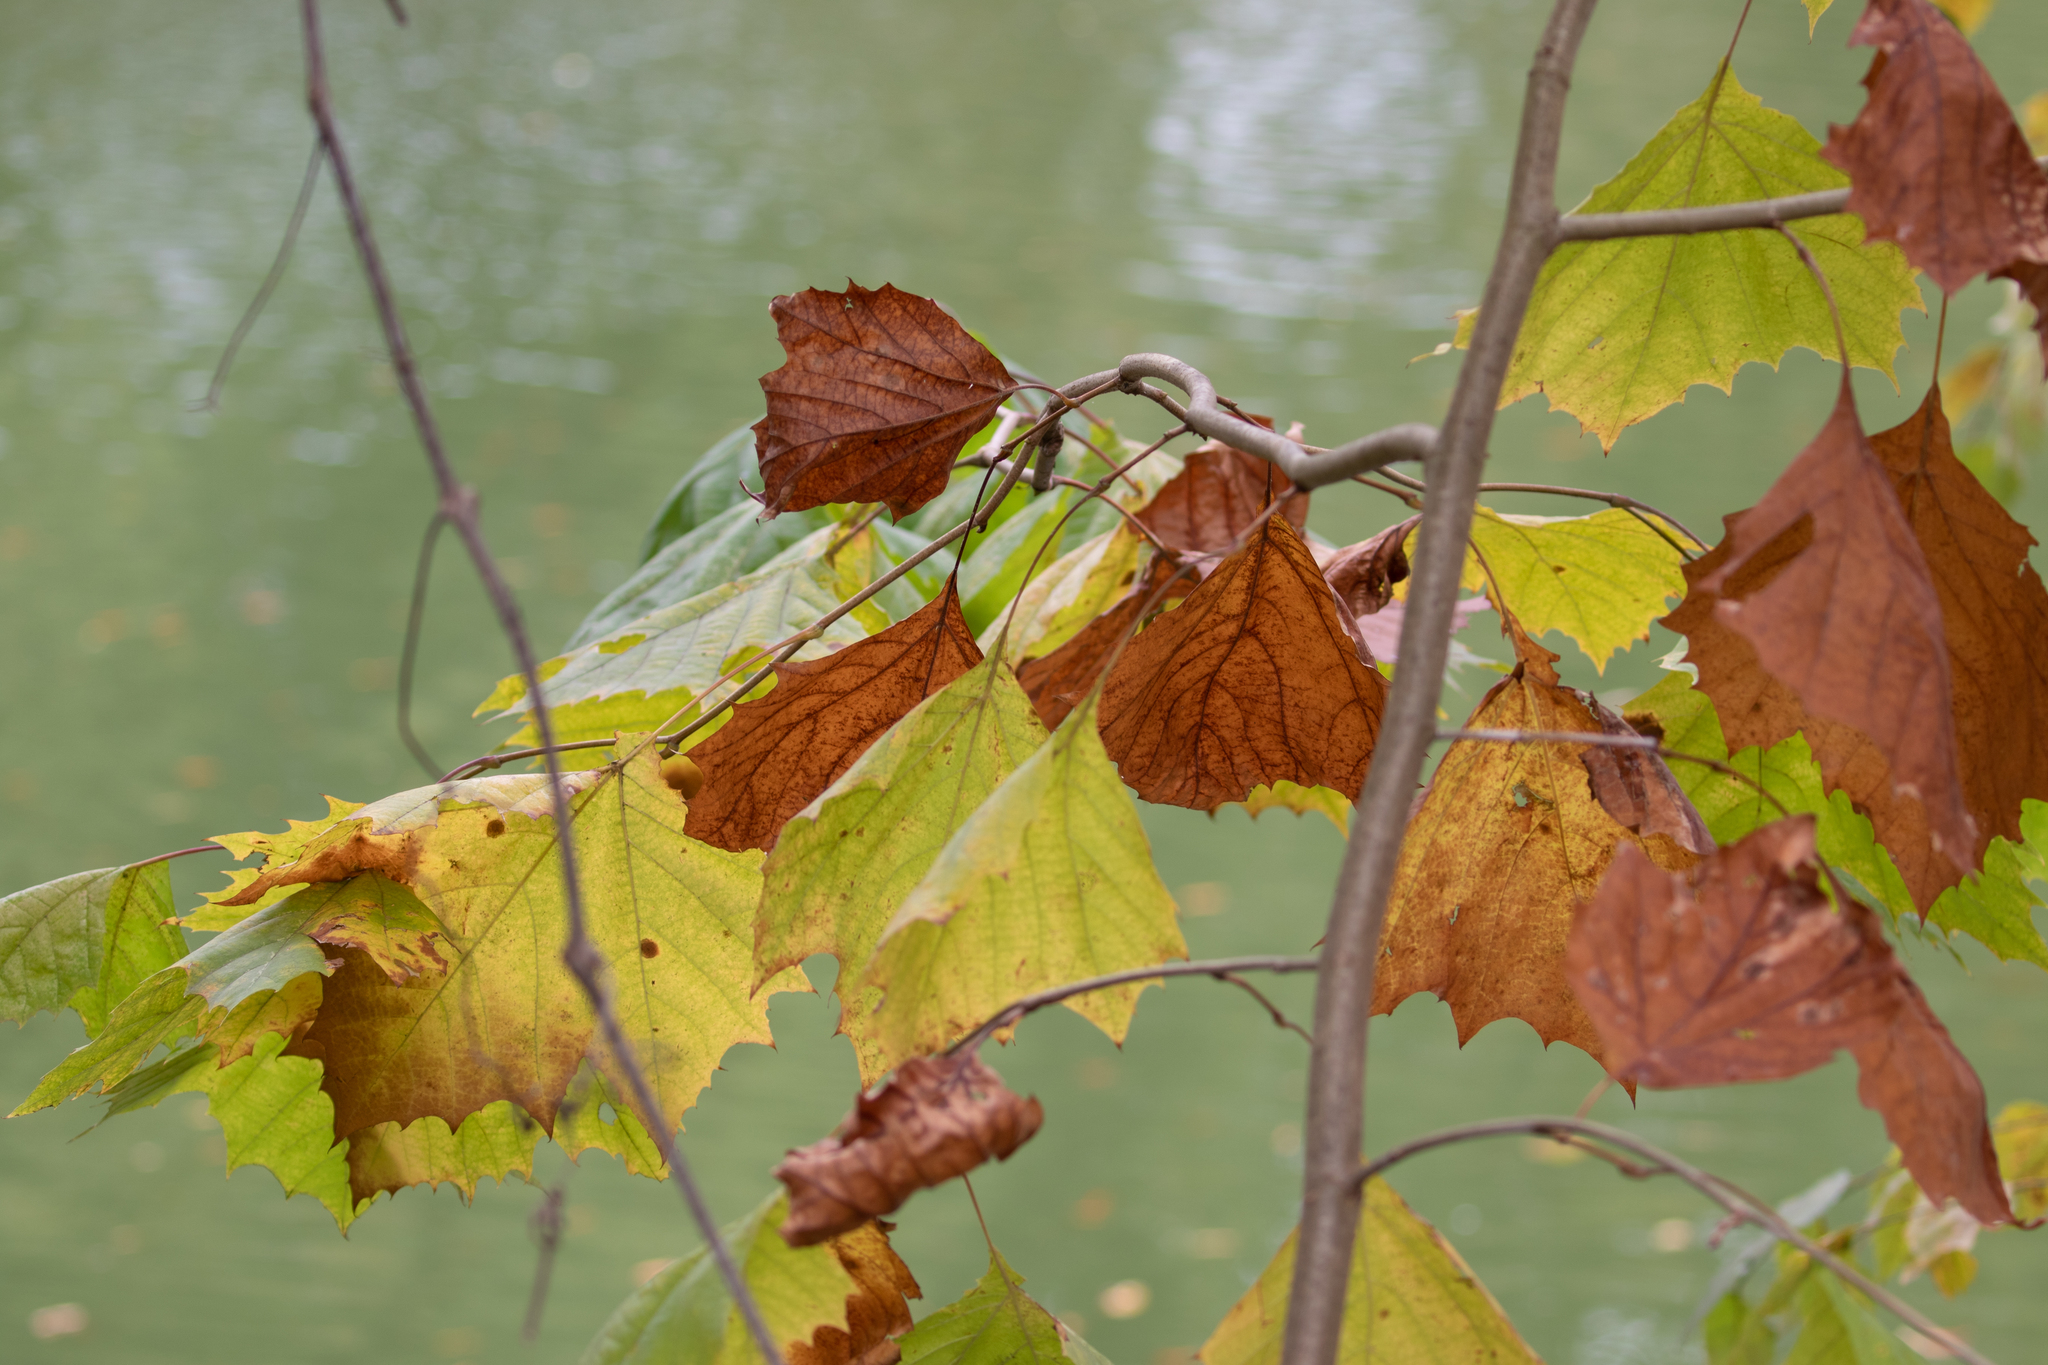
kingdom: Plantae
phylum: Tracheophyta
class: Magnoliopsida
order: Proteales
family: Platanaceae
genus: Platanus
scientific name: Platanus occidentalis
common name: American sycamore
